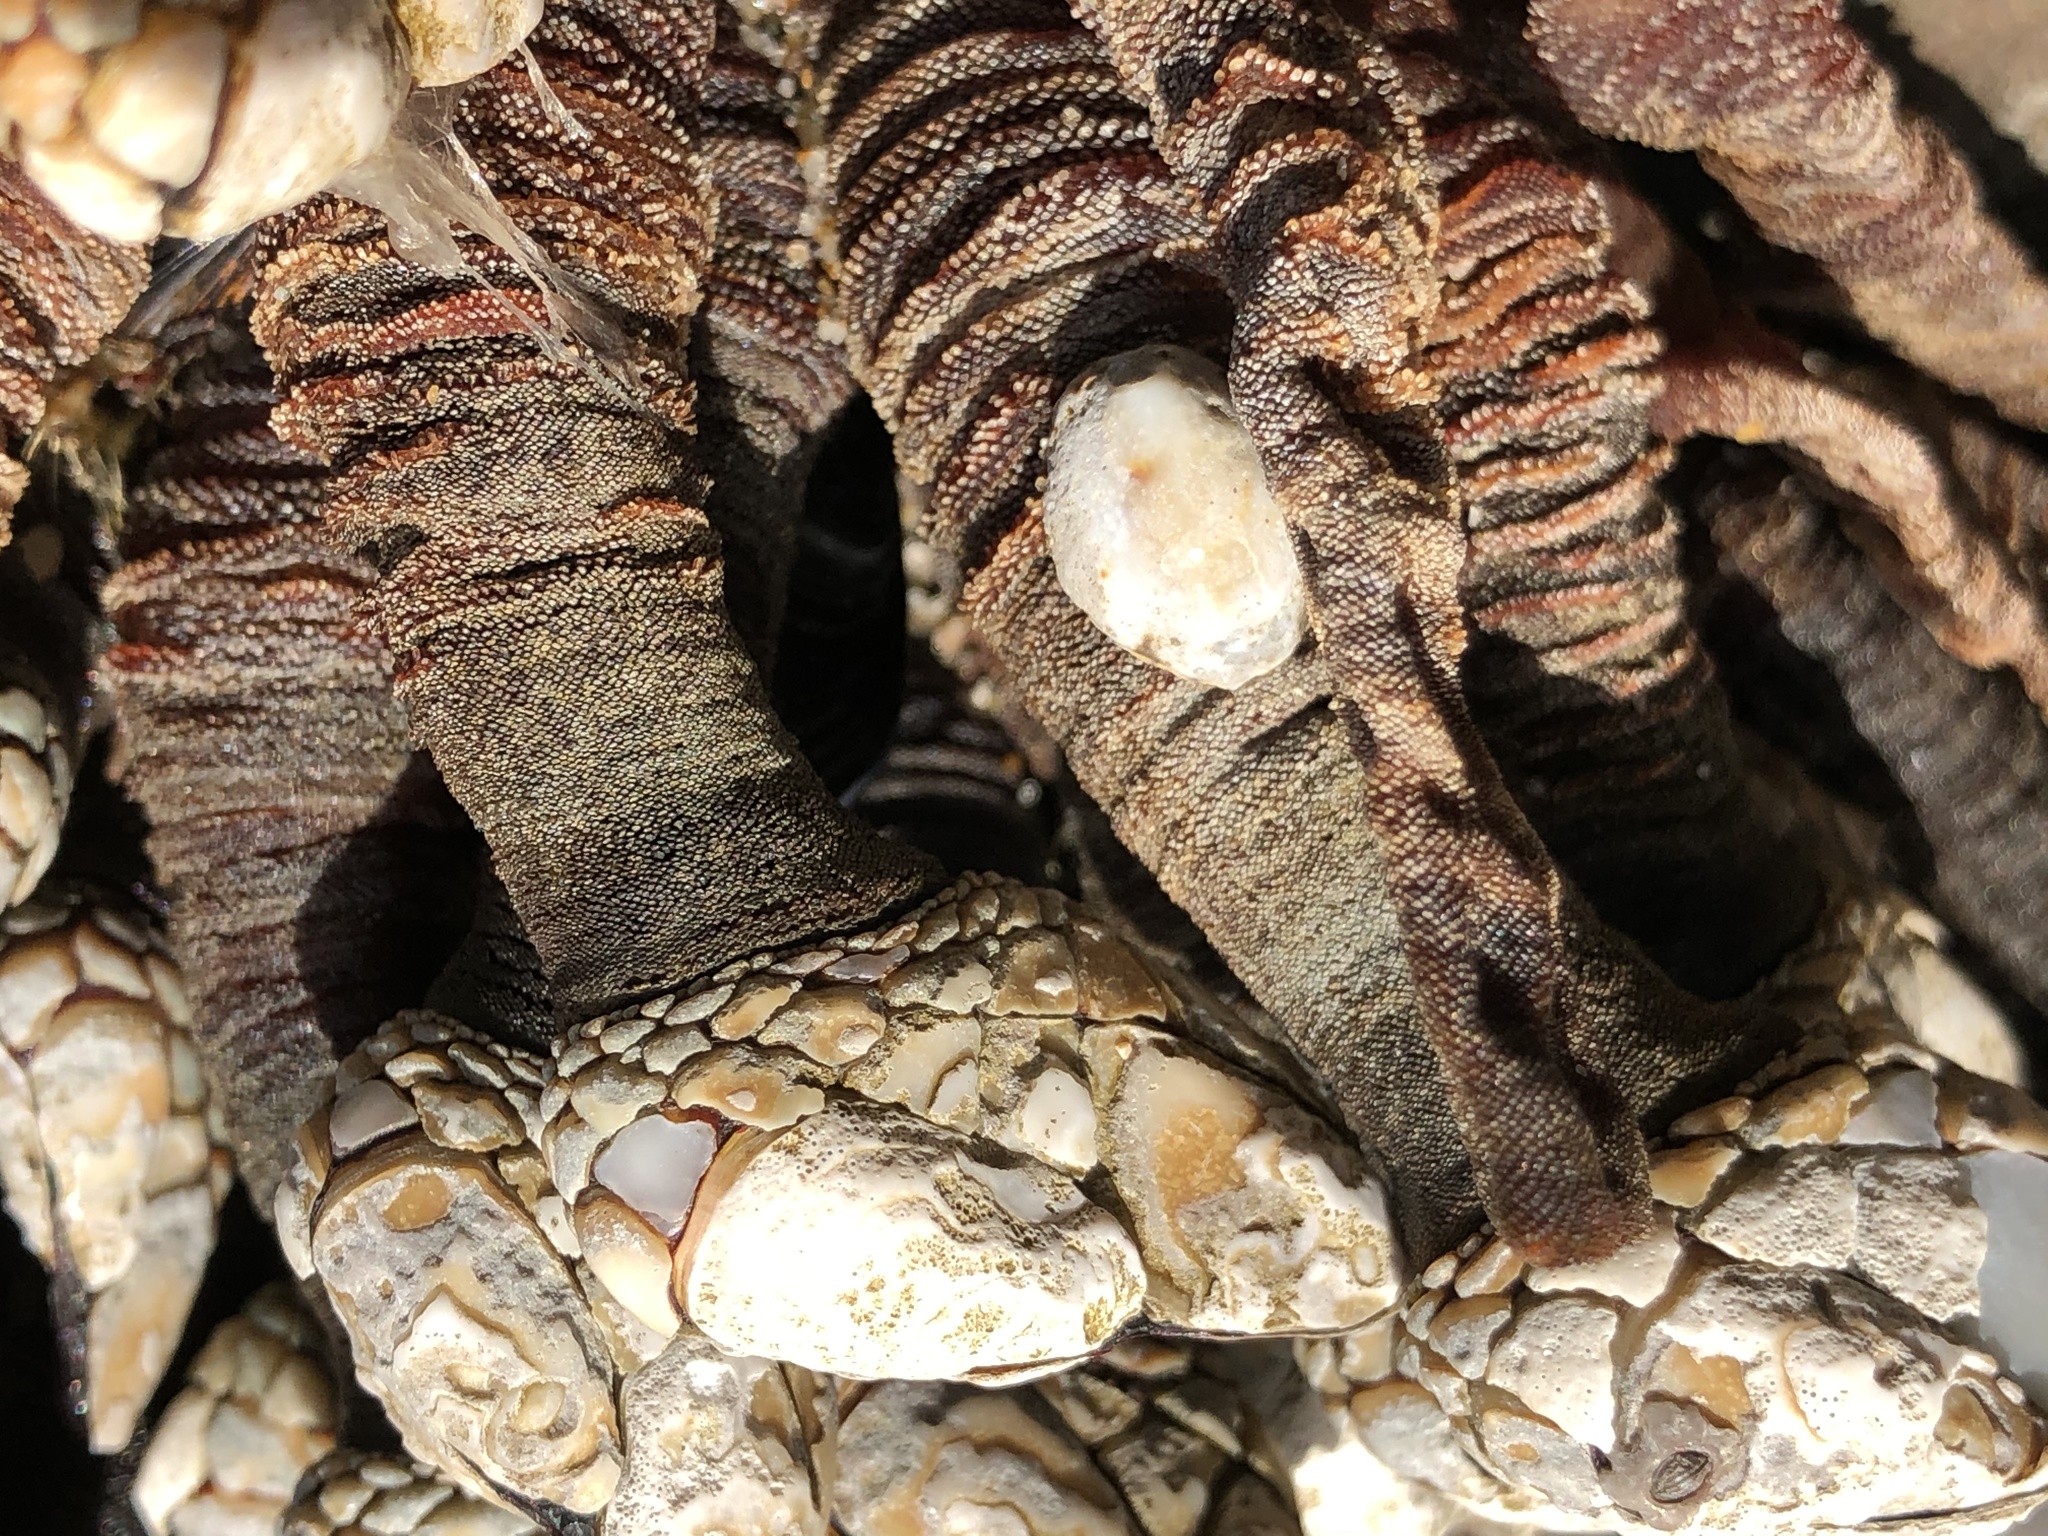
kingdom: Animalia
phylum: Arthropoda
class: Maxillopoda
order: Pedunculata
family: Pollicipedidae
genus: Pollicipes
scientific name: Pollicipes polymerus
